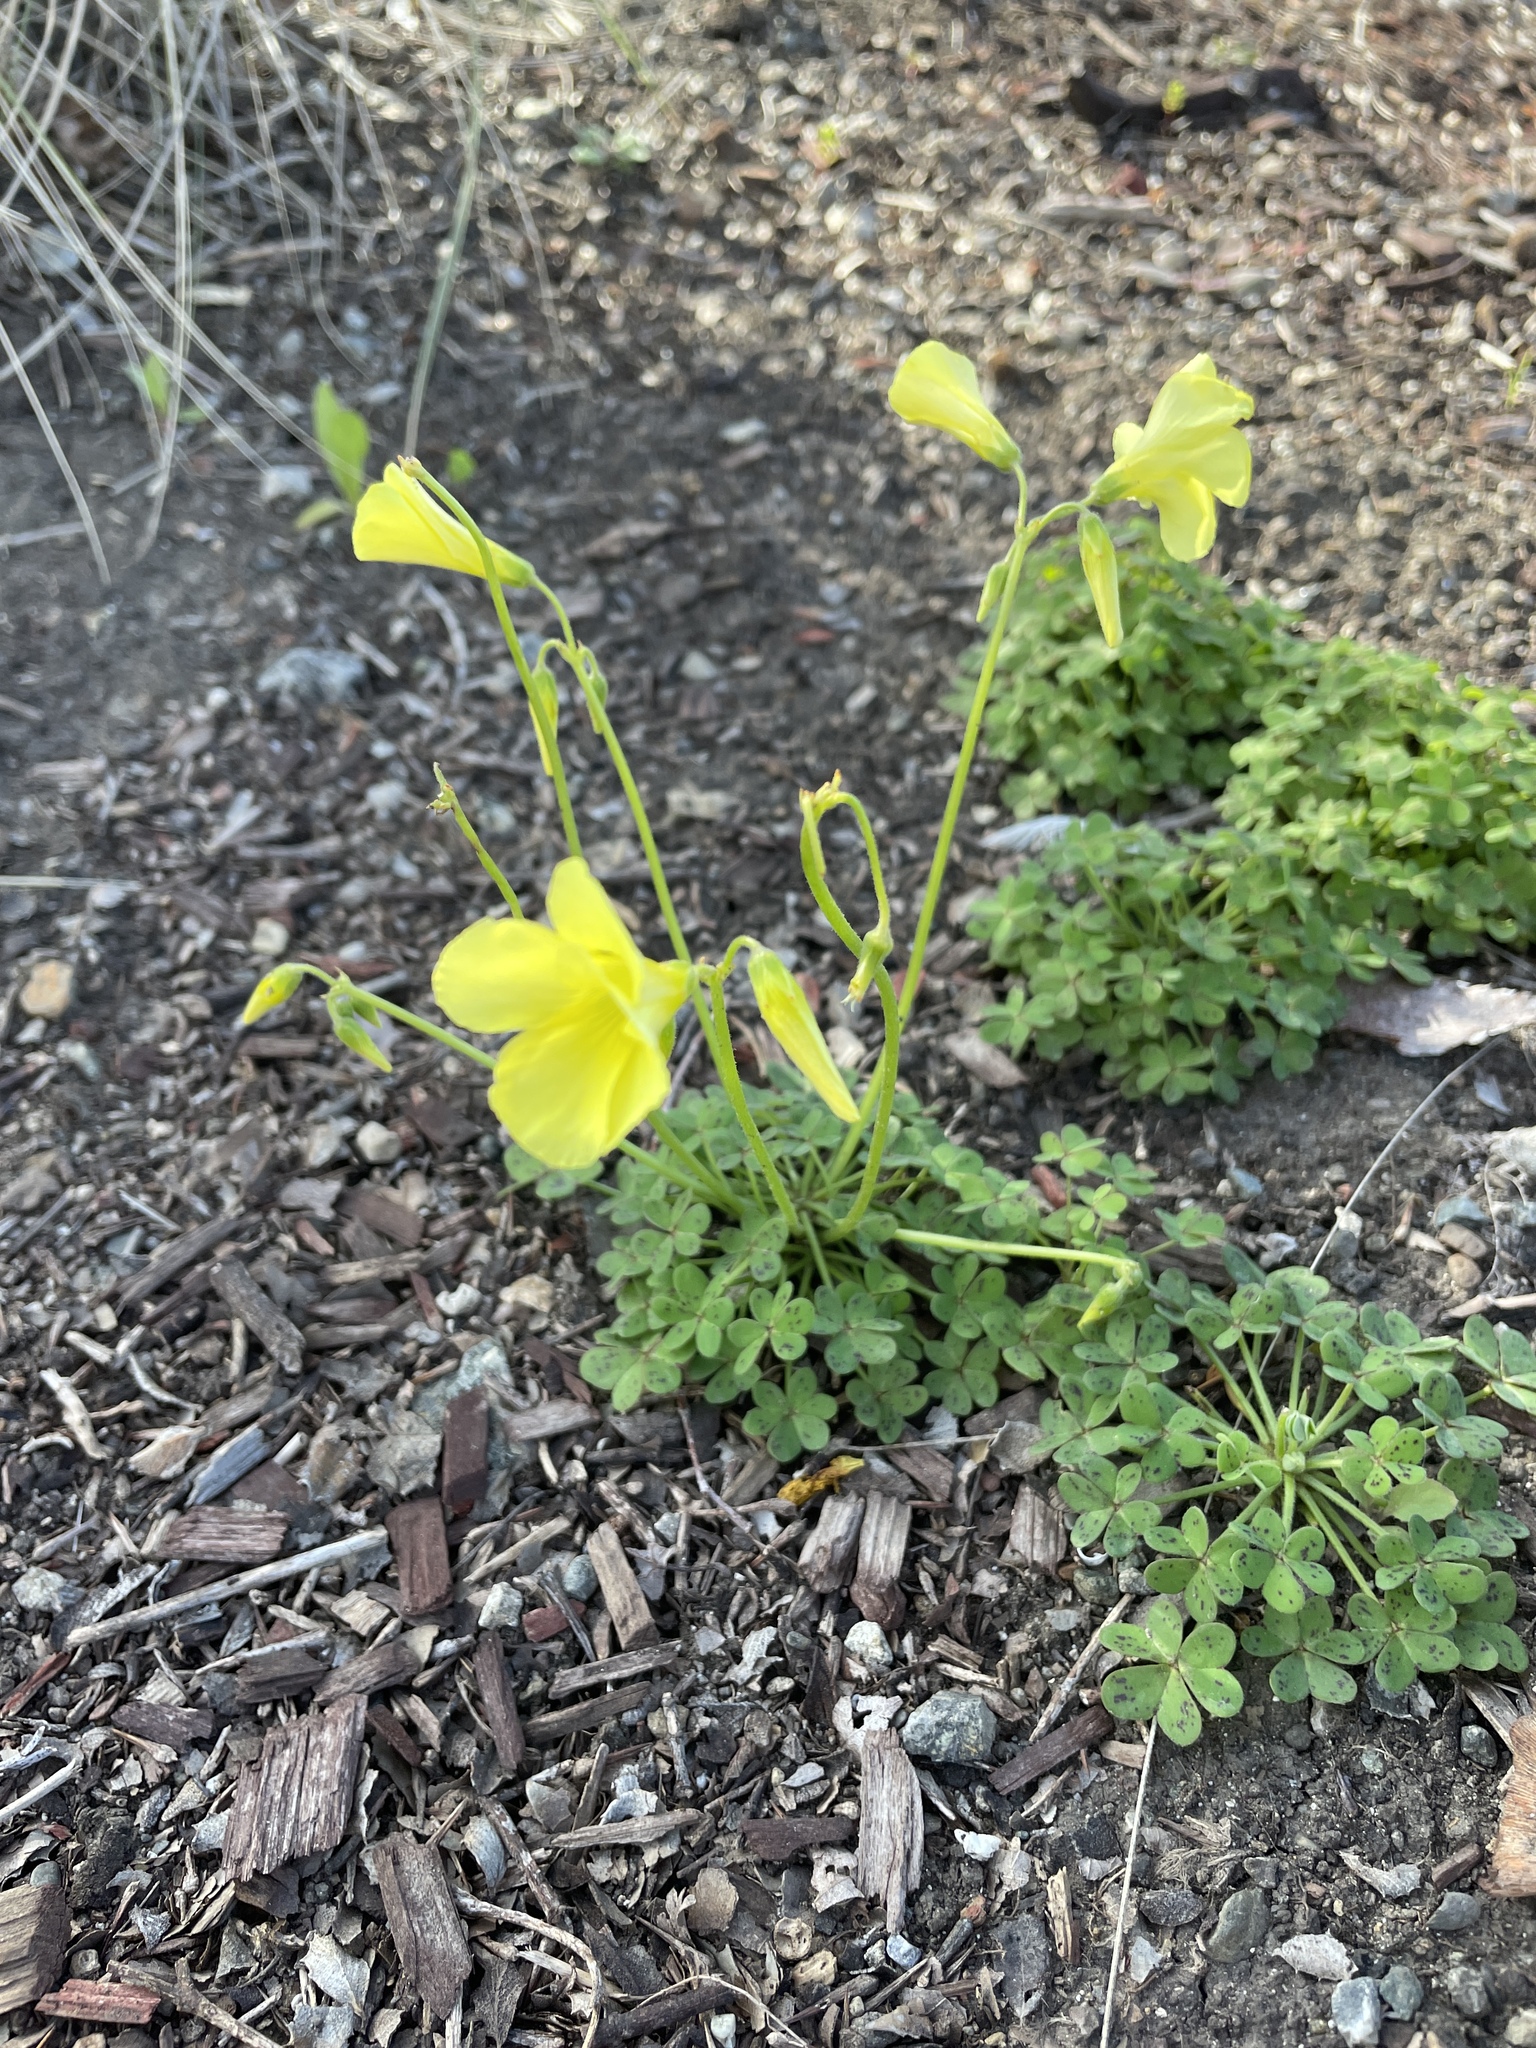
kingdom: Plantae
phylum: Tracheophyta
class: Magnoliopsida
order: Oxalidales
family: Oxalidaceae
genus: Oxalis
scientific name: Oxalis pes-caprae
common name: Bermuda-buttercup
